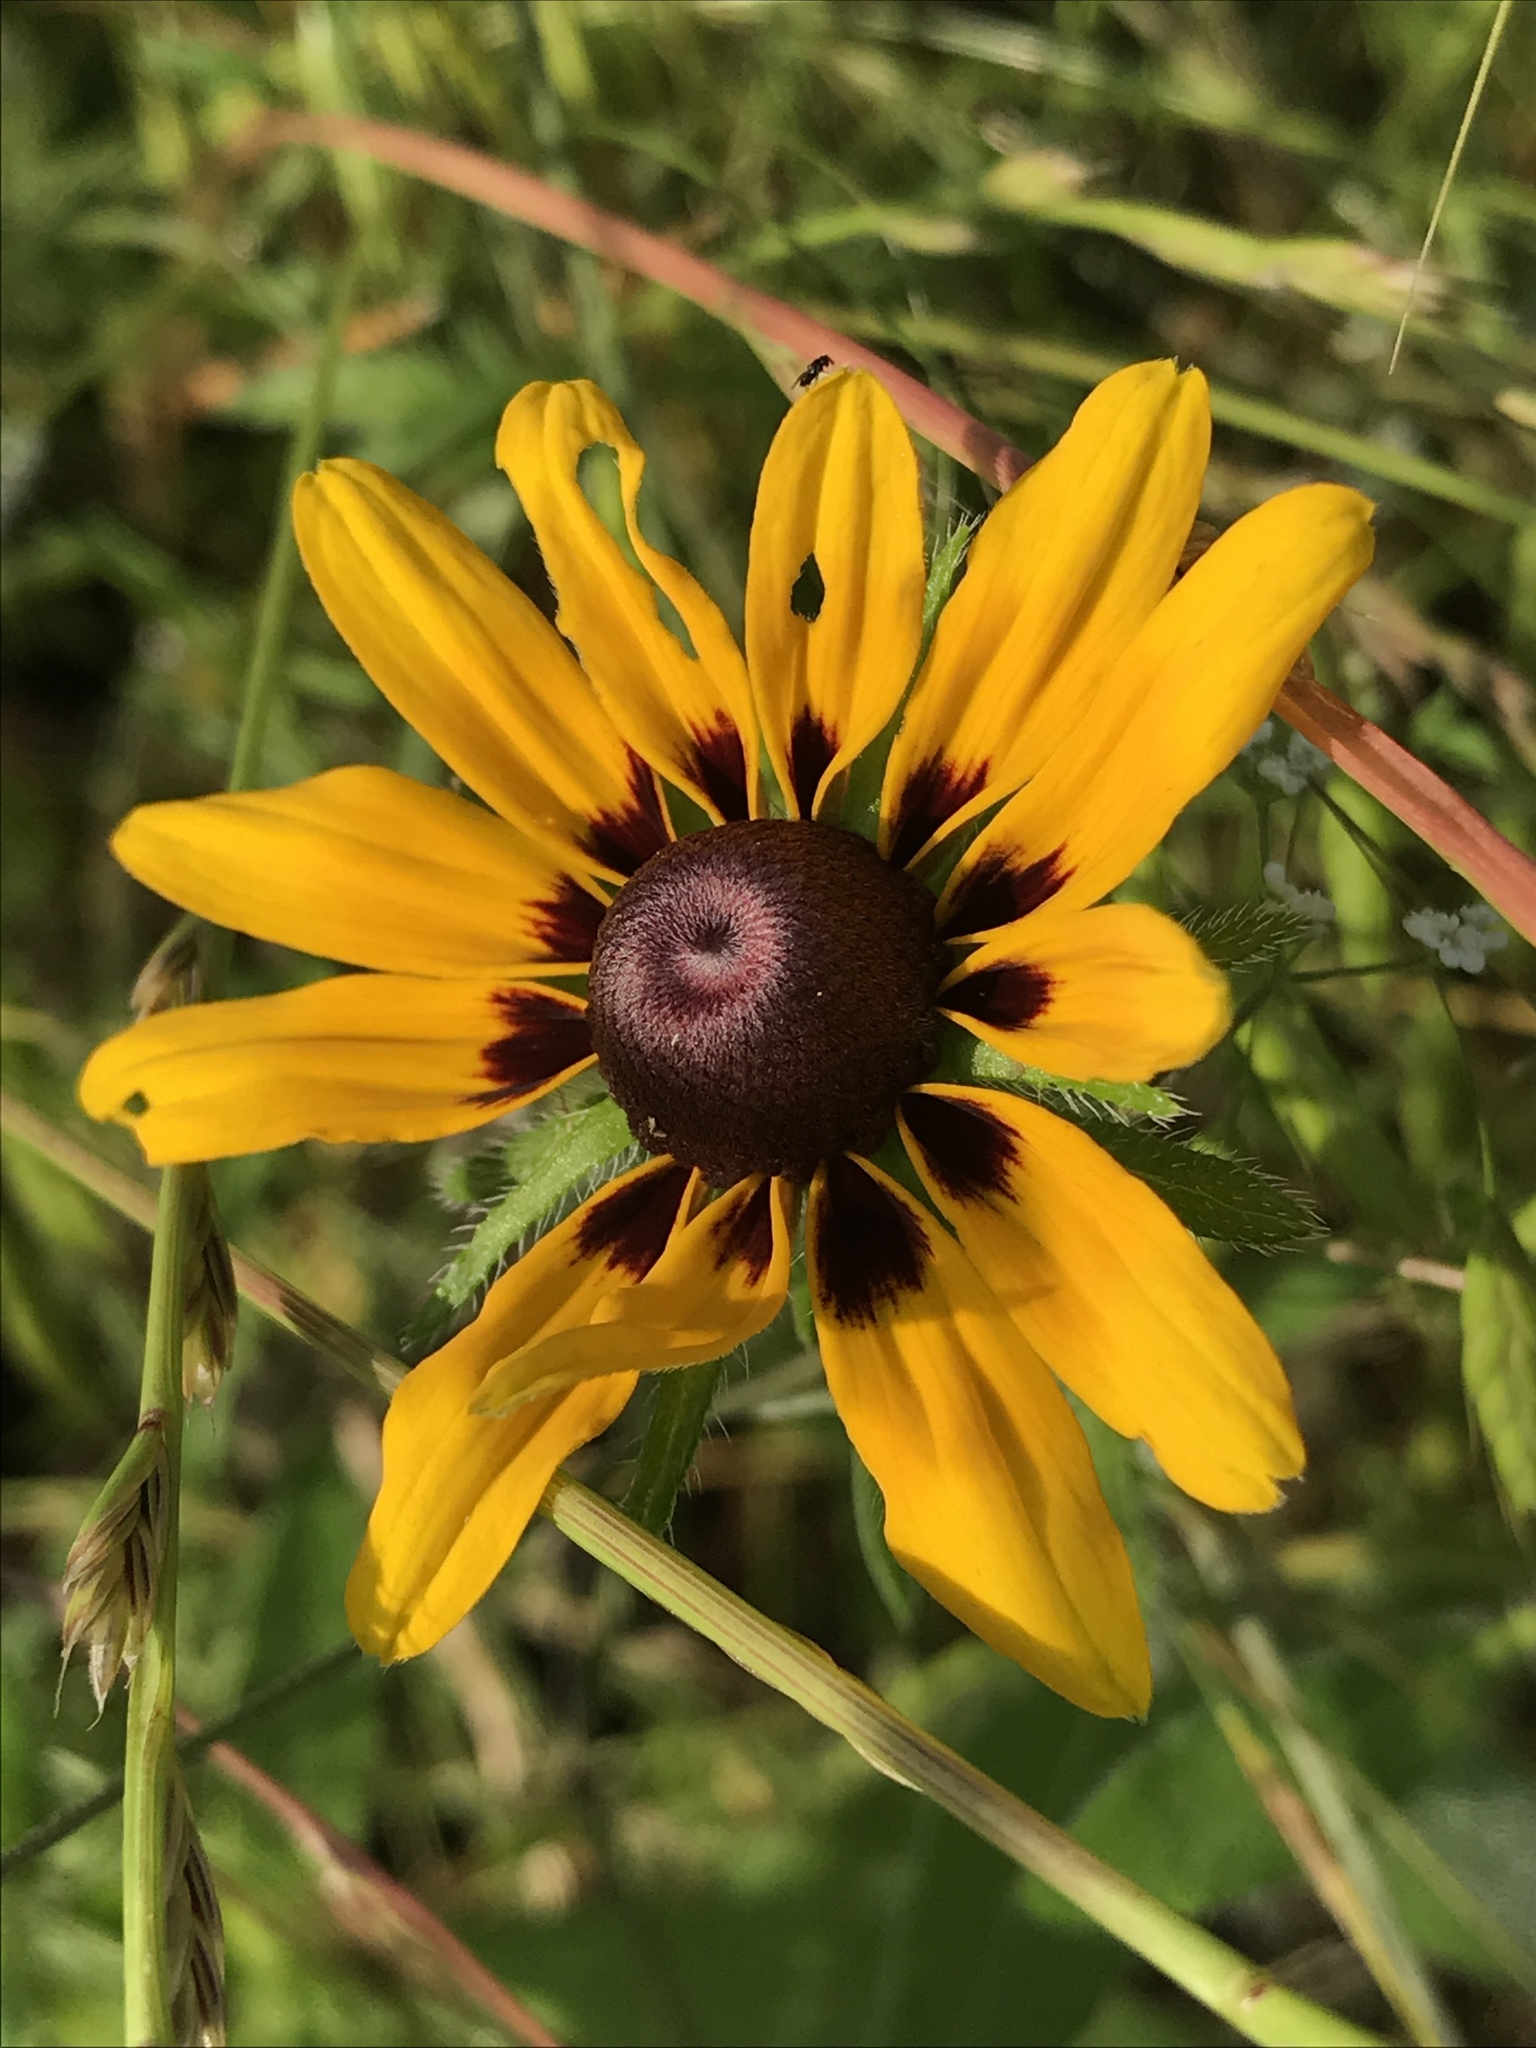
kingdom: Plantae
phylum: Tracheophyta
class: Magnoliopsida
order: Asterales
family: Asteraceae
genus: Rudbeckia
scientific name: Rudbeckia hirta
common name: Black-eyed-susan
